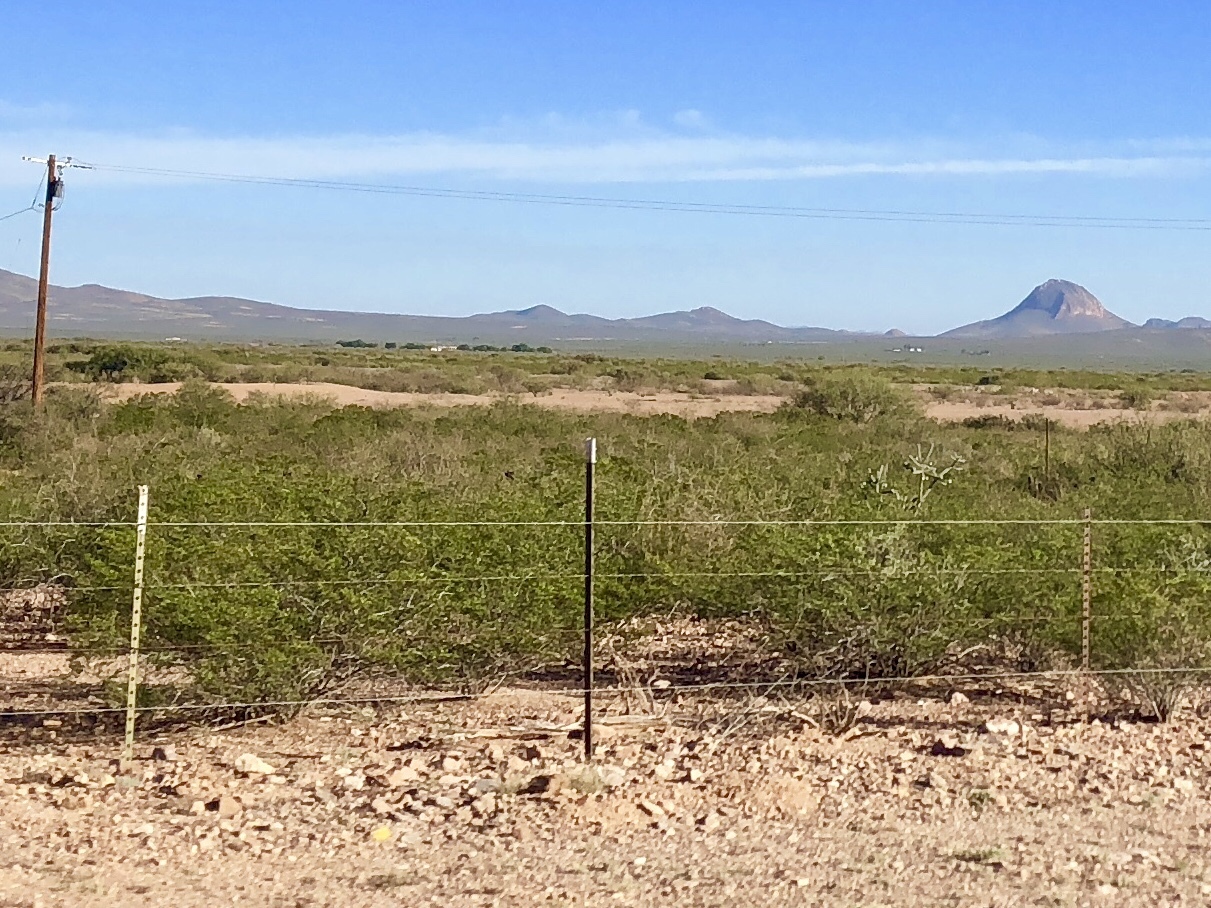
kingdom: Plantae
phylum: Tracheophyta
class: Magnoliopsida
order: Zygophyllales
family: Zygophyllaceae
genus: Larrea
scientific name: Larrea tridentata
